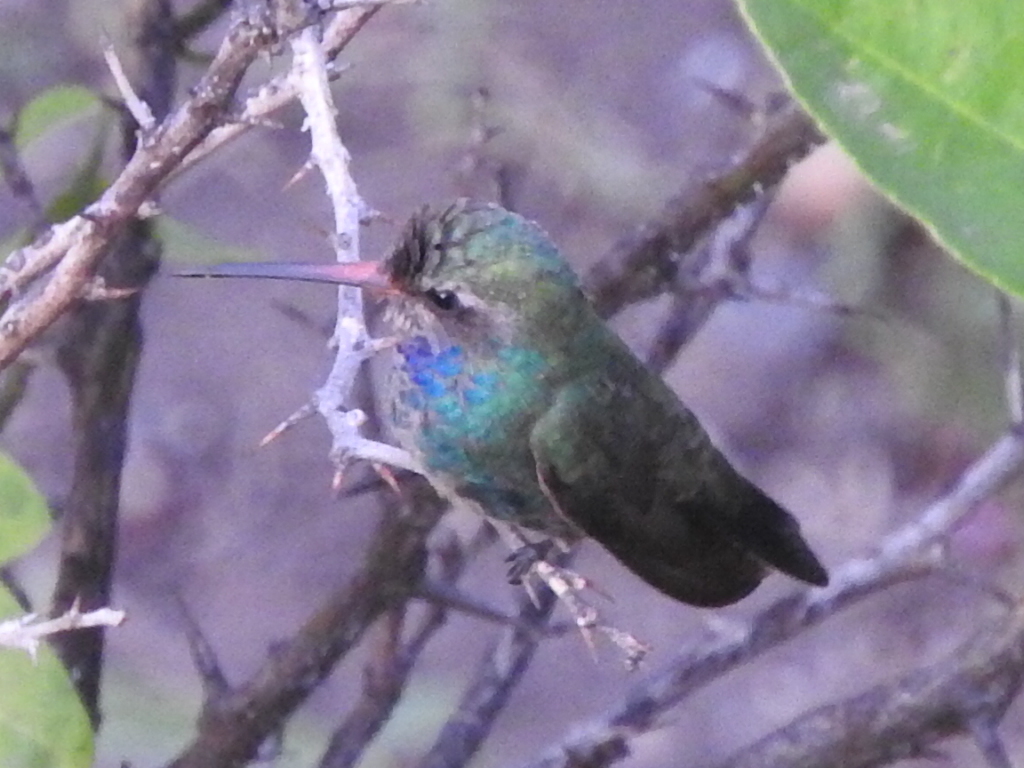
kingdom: Animalia
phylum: Chordata
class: Aves
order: Apodiformes
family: Trochilidae
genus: Cynanthus
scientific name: Cynanthus latirostris
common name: Broad-billed hummingbird
